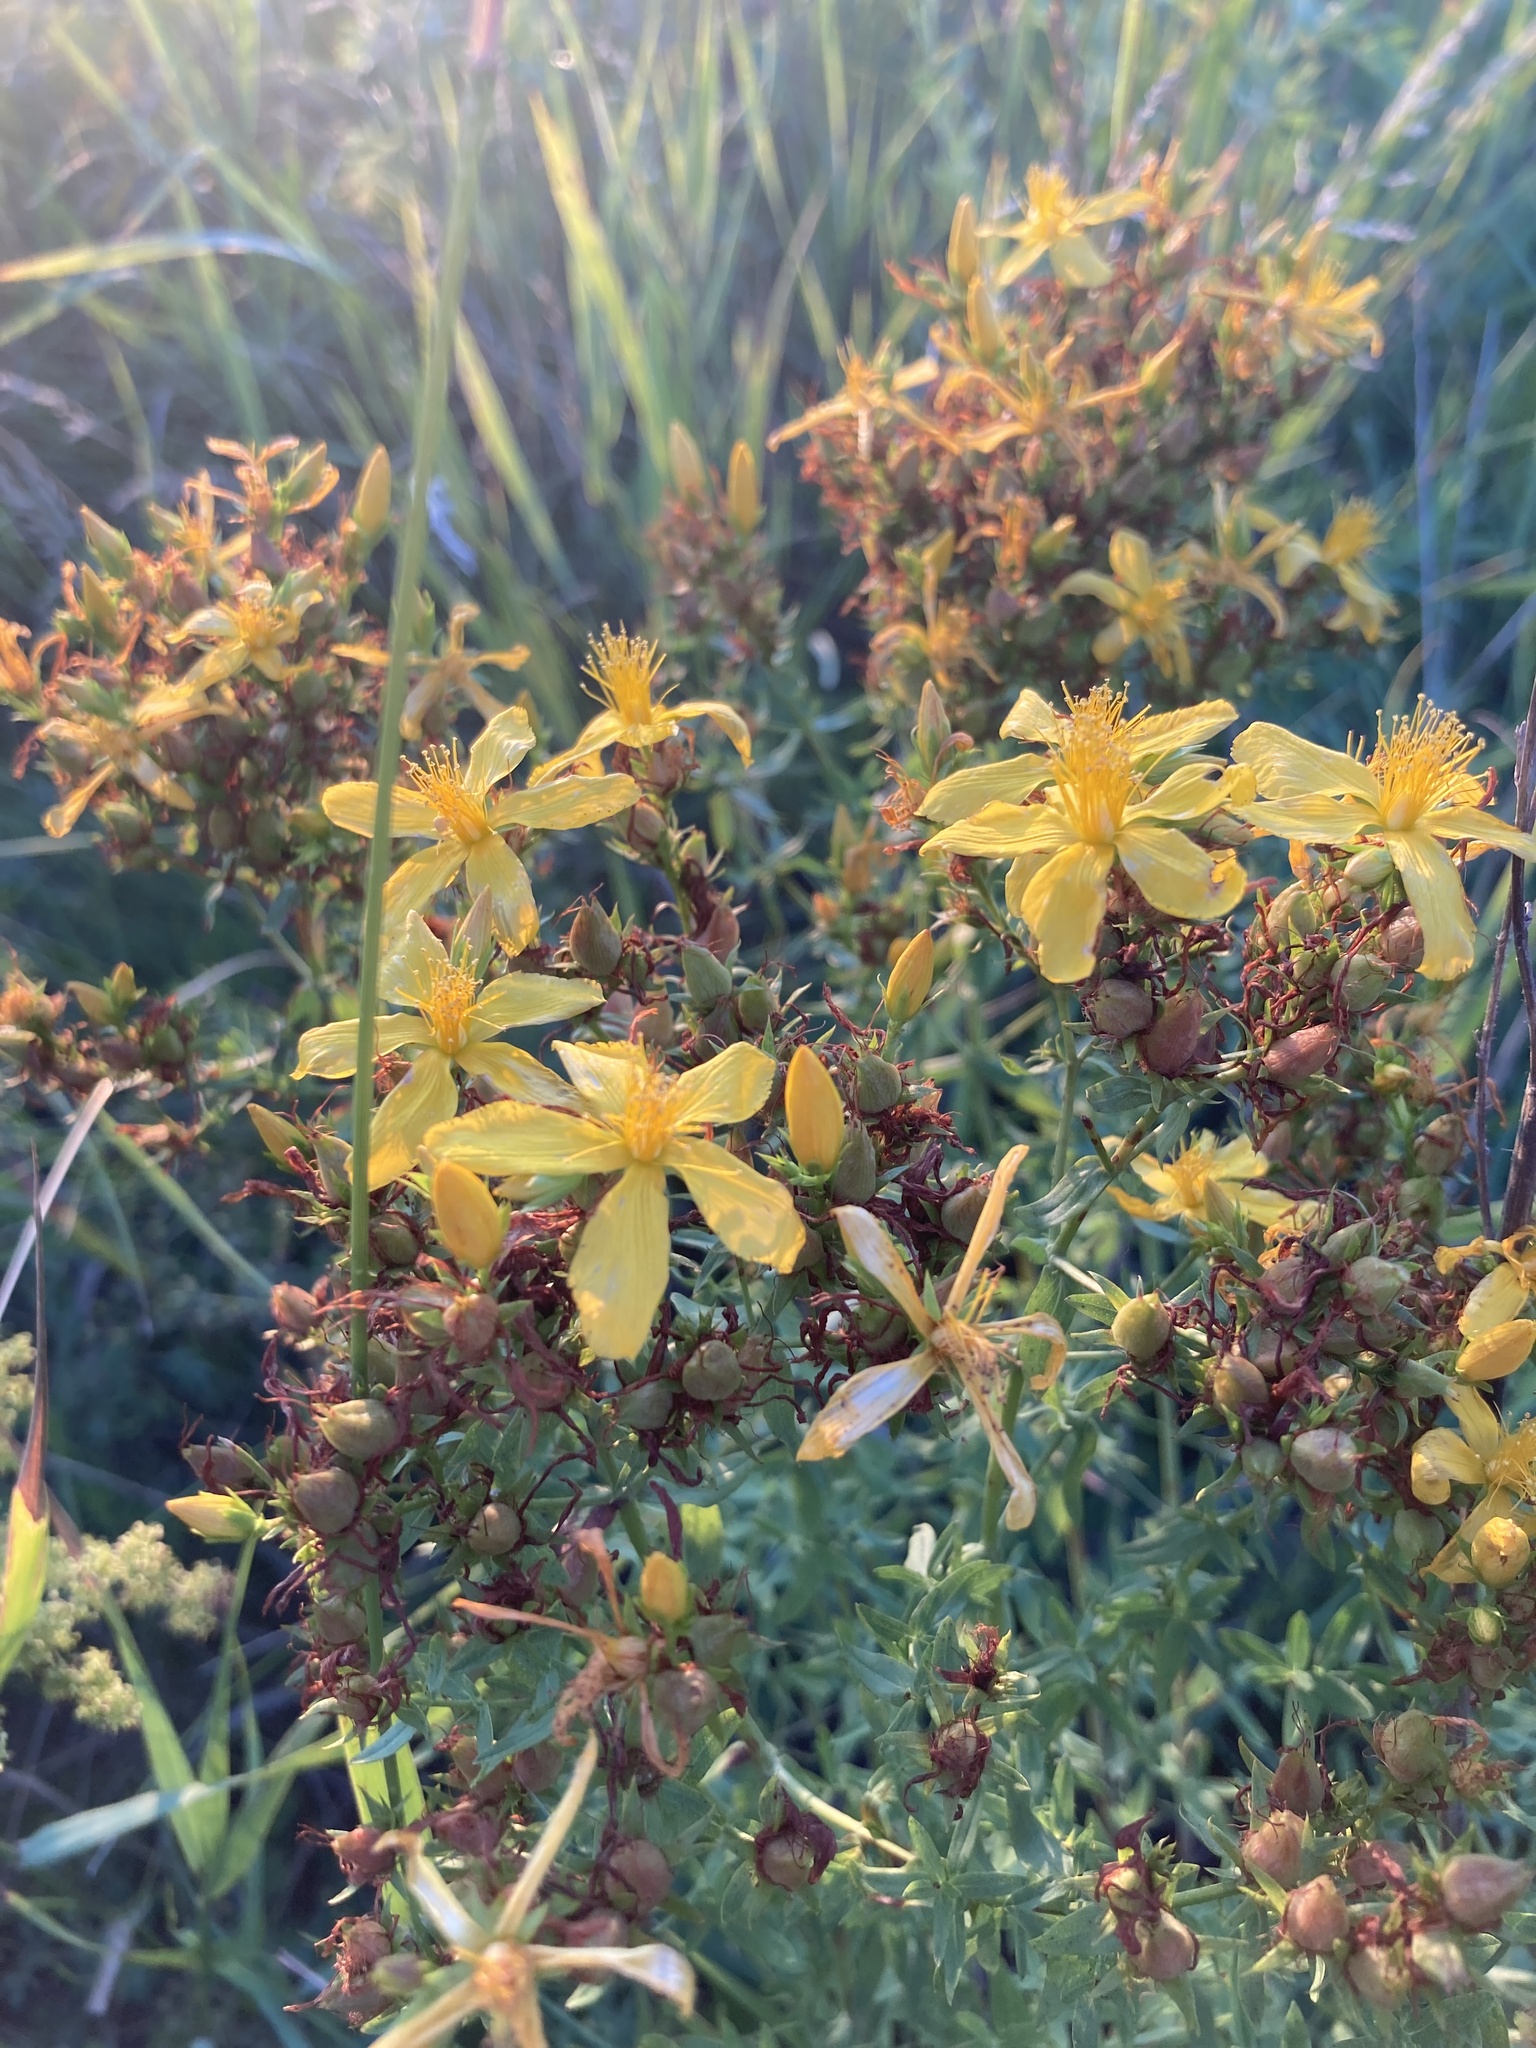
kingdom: Plantae
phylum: Tracheophyta
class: Magnoliopsida
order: Malpighiales
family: Hypericaceae
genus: Hypericum
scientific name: Hypericum perforatum
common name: Common st. johnswort
